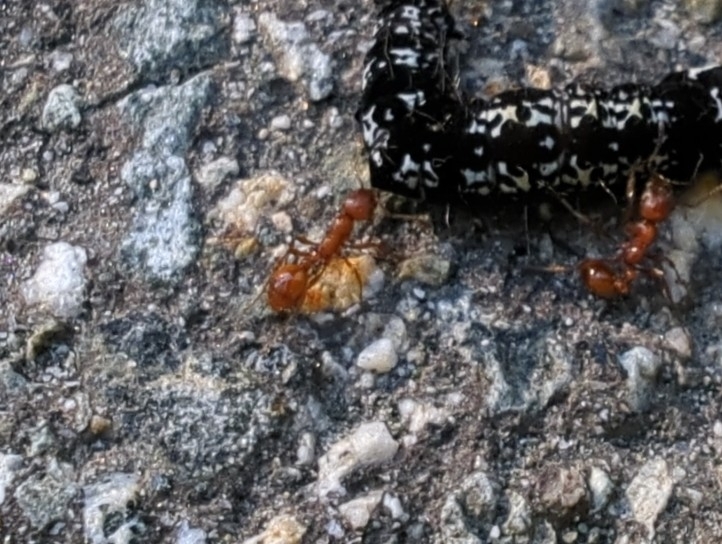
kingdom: Animalia
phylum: Arthropoda
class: Insecta
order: Hymenoptera
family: Formicidae
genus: Manica
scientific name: Manica hunteri
